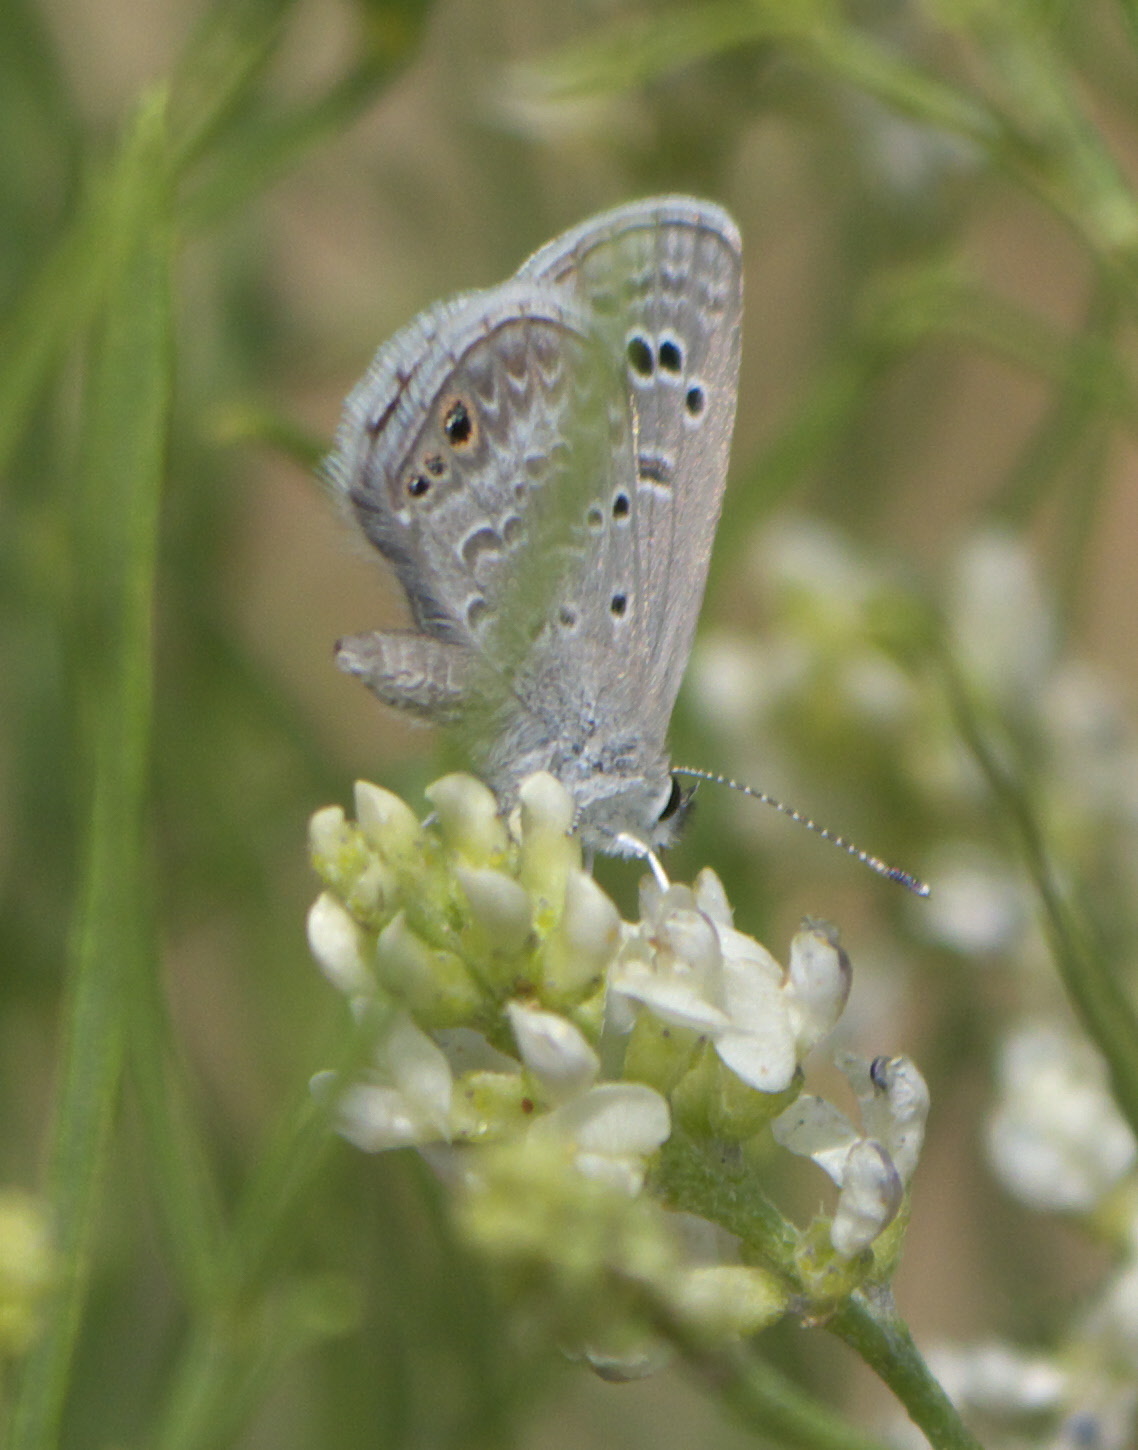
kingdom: Animalia
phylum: Arthropoda
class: Insecta
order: Lepidoptera
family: Lycaenidae
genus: Echinargus
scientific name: Echinargus isola
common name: Reakirt's blue
